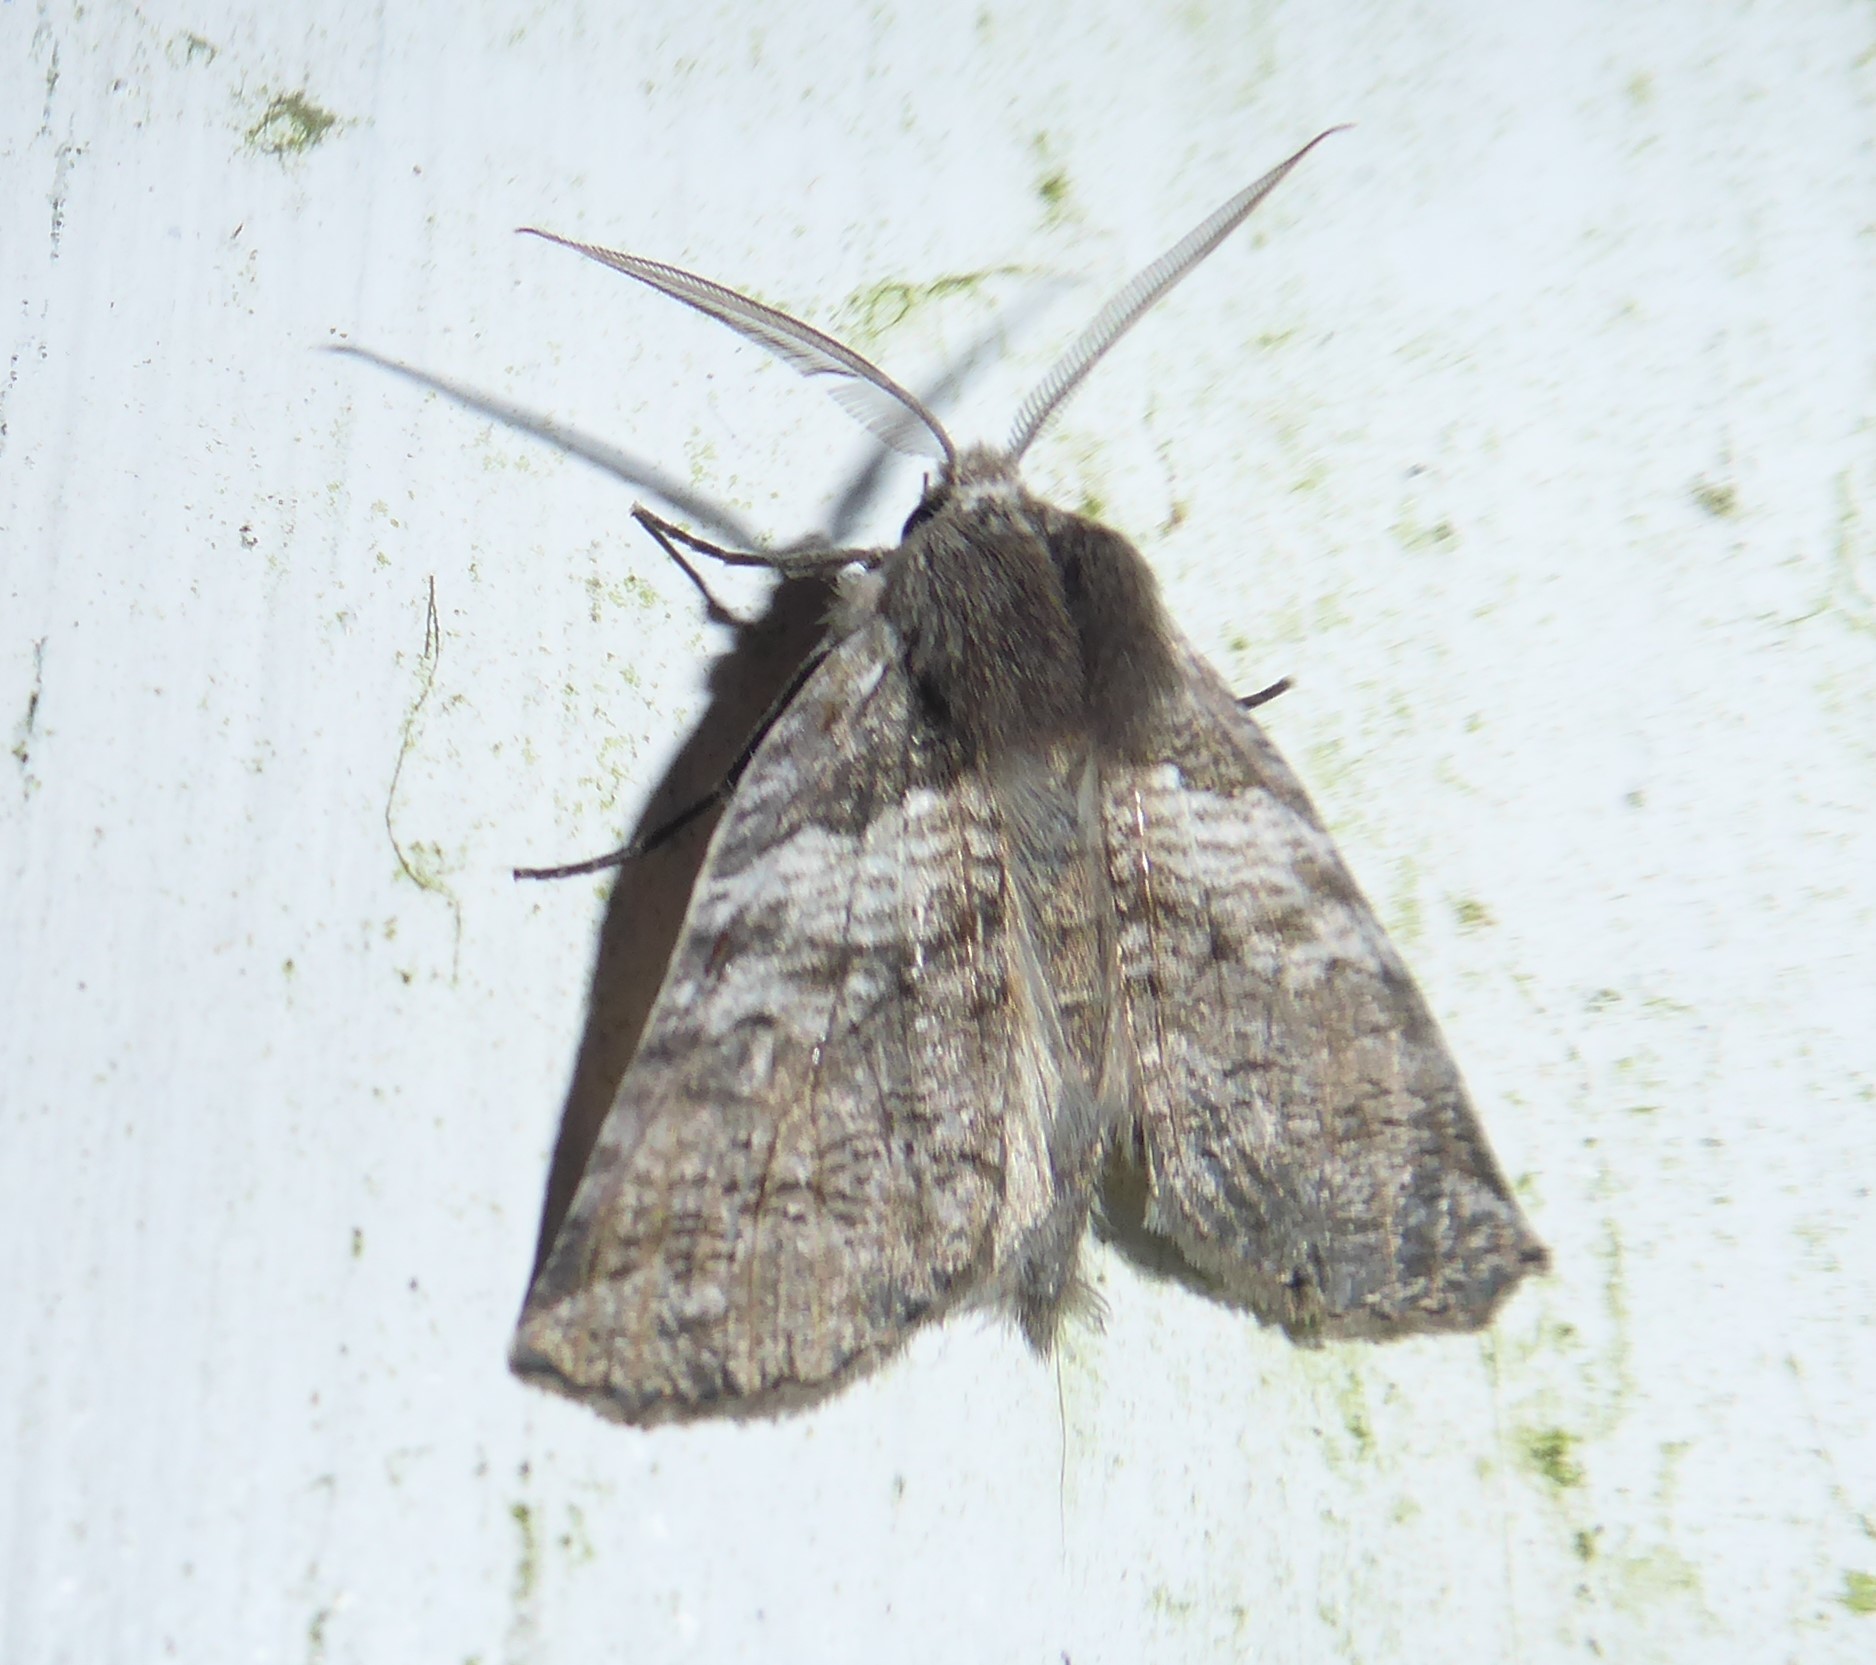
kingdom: Animalia
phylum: Arthropoda
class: Insecta
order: Lepidoptera
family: Geometridae
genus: Declana
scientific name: Declana
